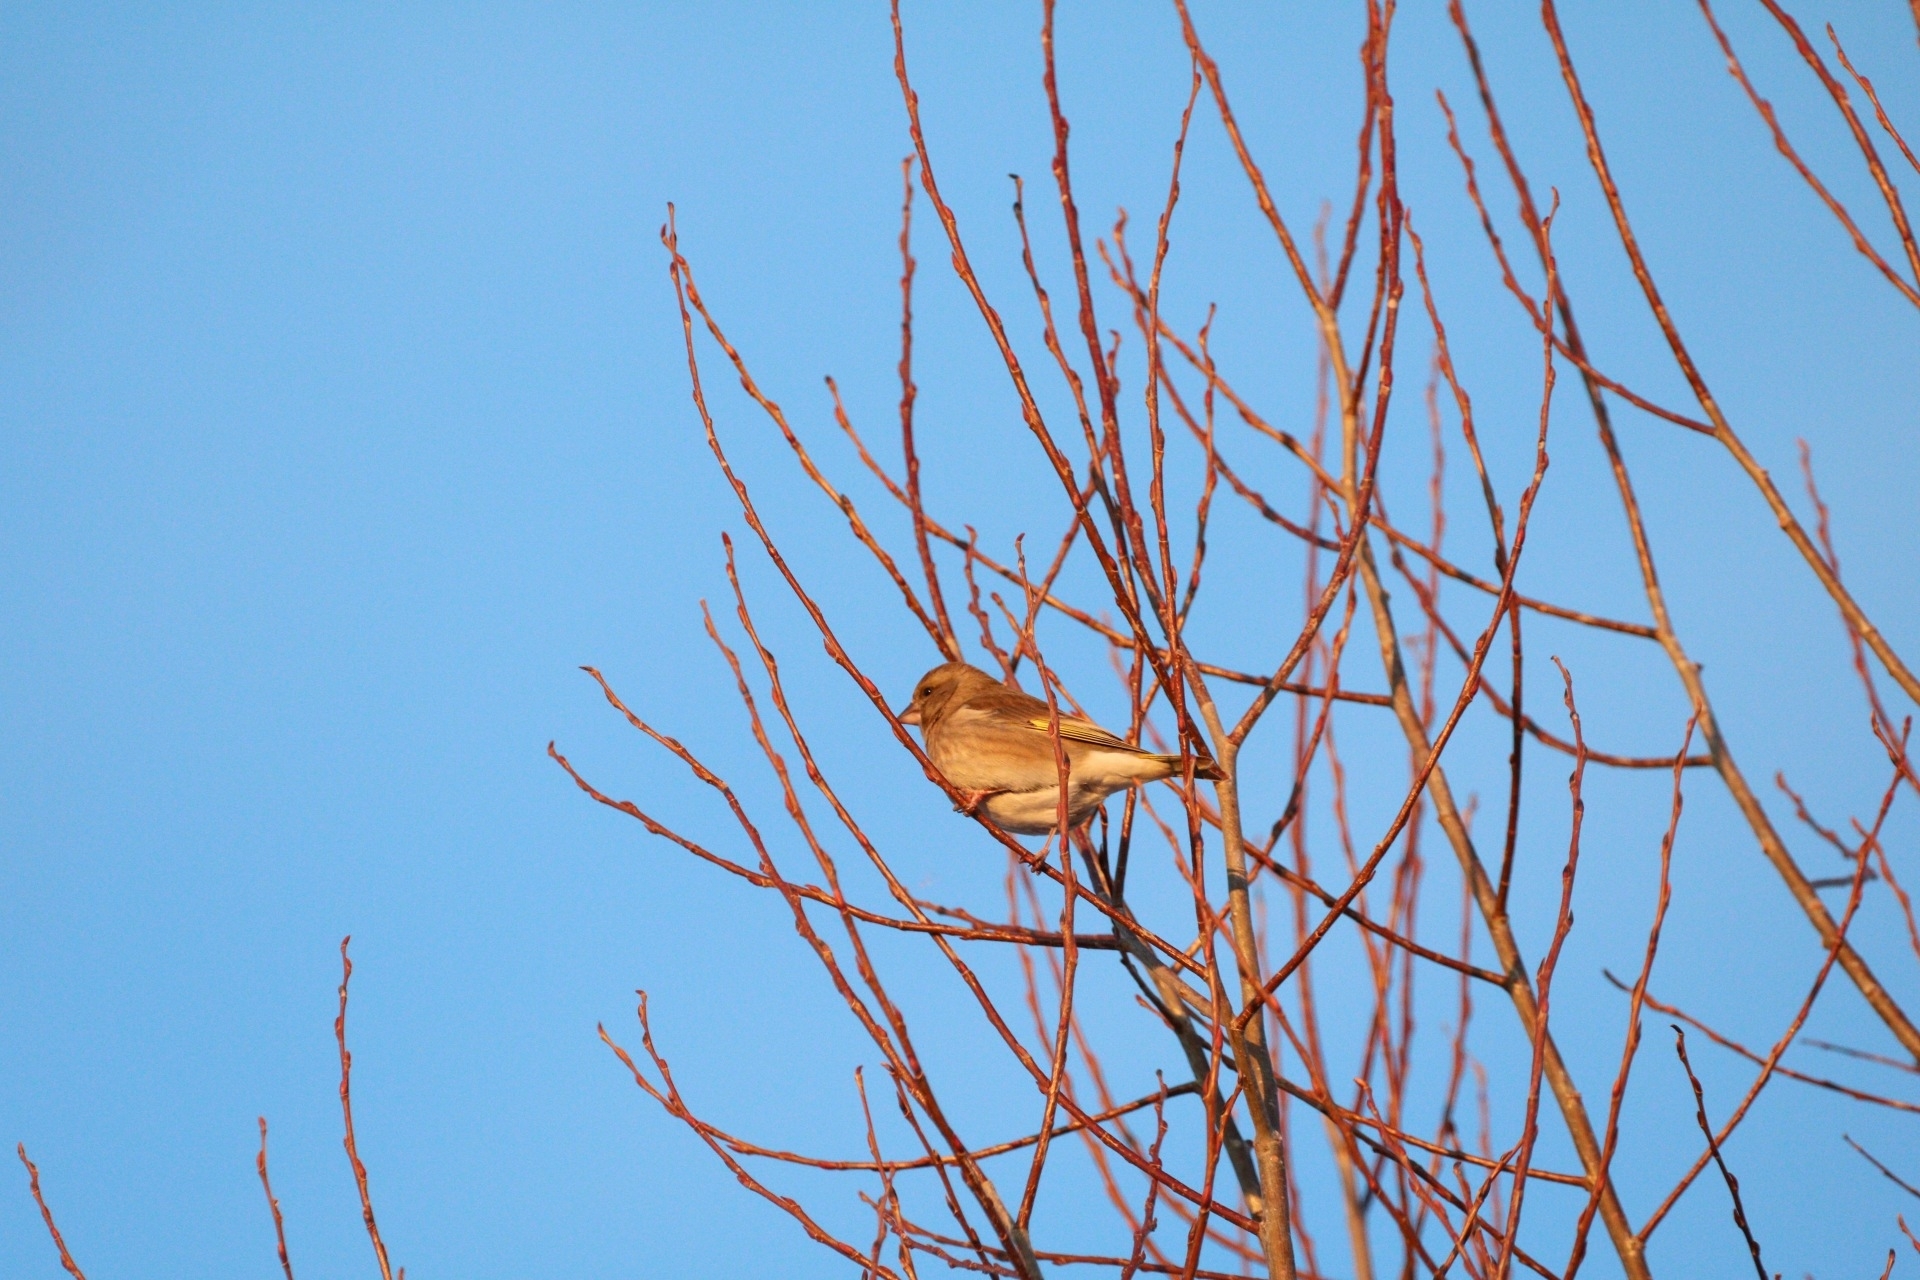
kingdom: Plantae
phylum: Tracheophyta
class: Liliopsida
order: Poales
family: Poaceae
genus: Chloris
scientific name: Chloris chloris
